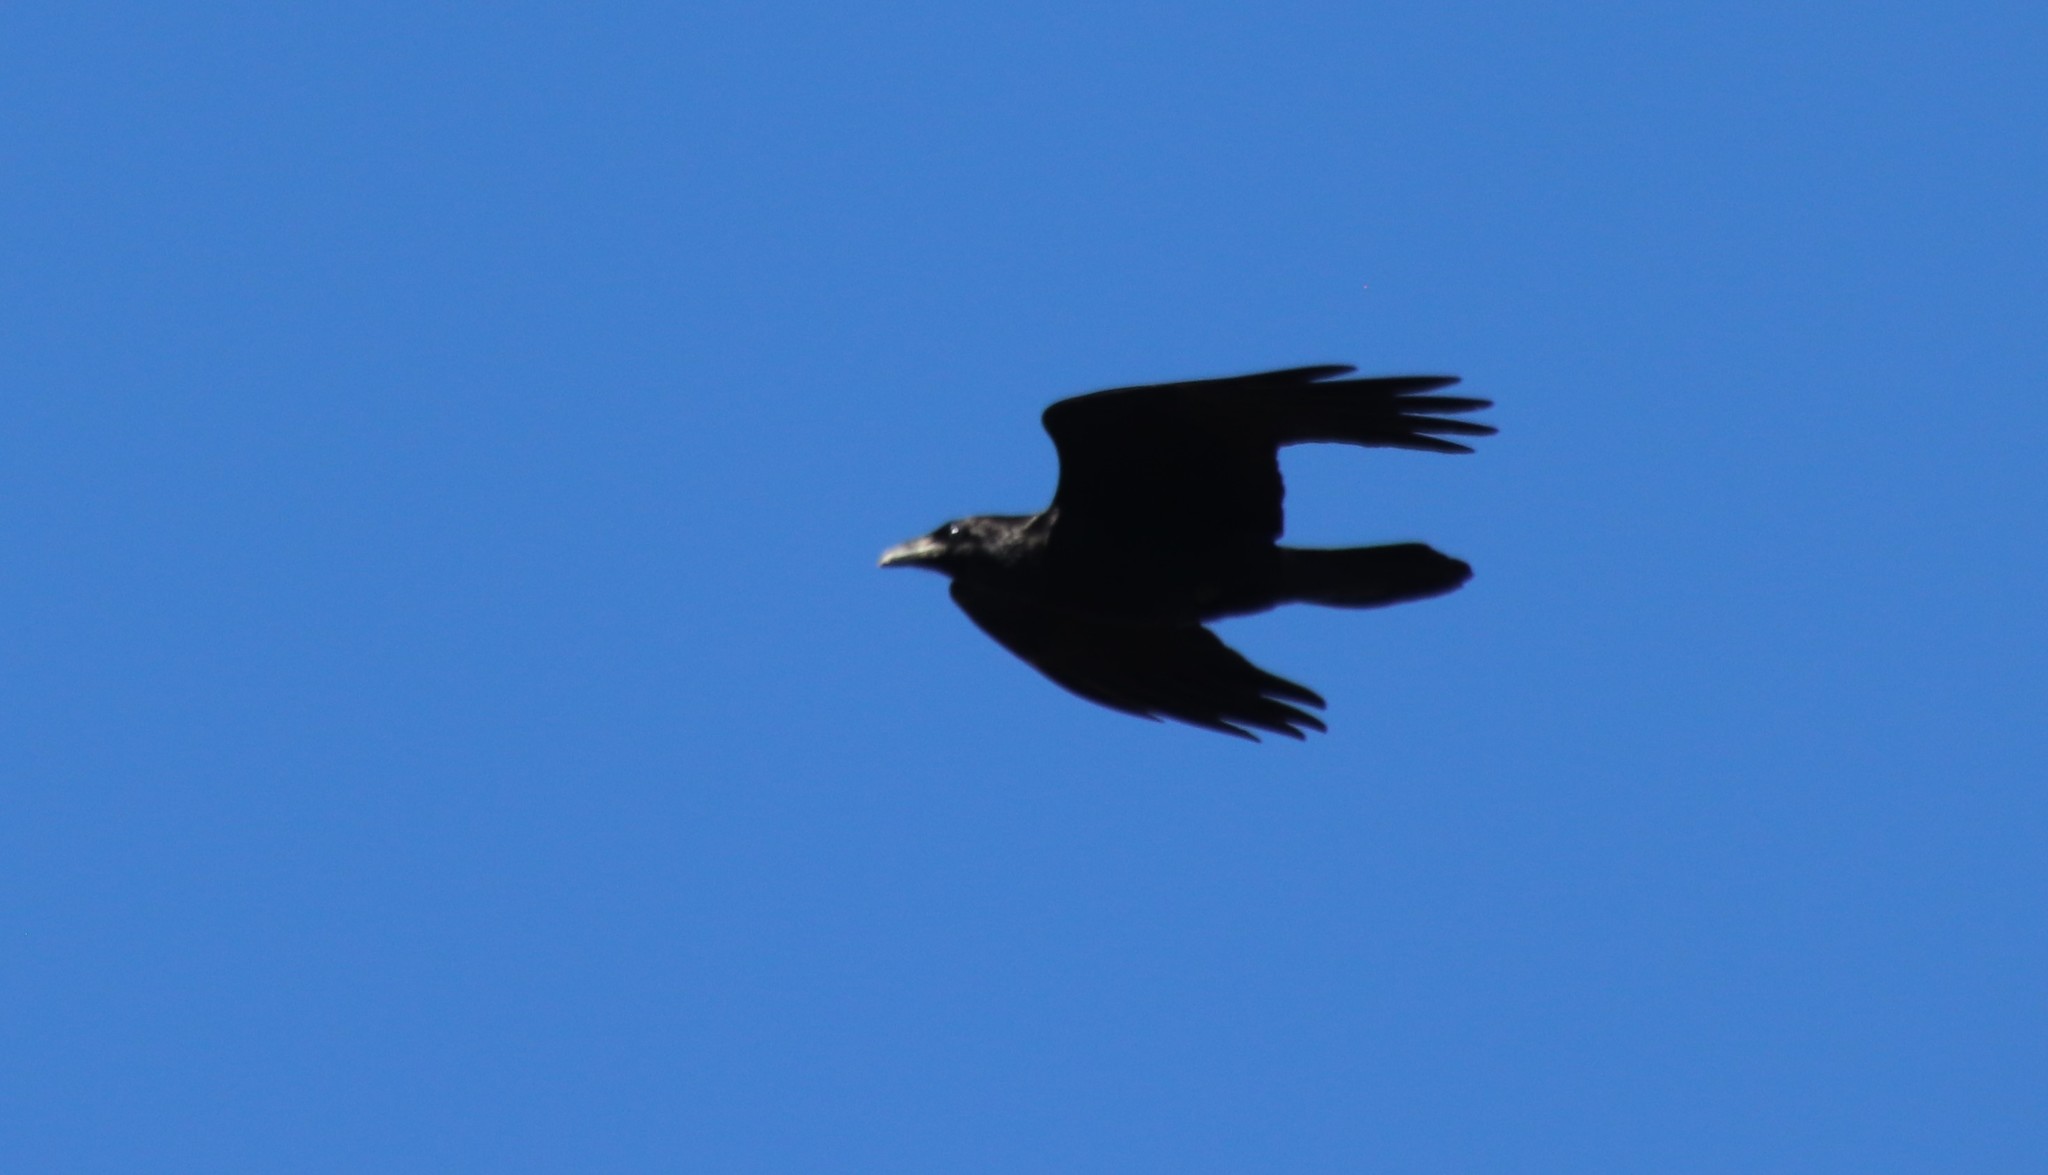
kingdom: Animalia
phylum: Chordata
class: Aves
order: Passeriformes
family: Corvidae
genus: Corvus
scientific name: Corvus corax
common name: Common raven
